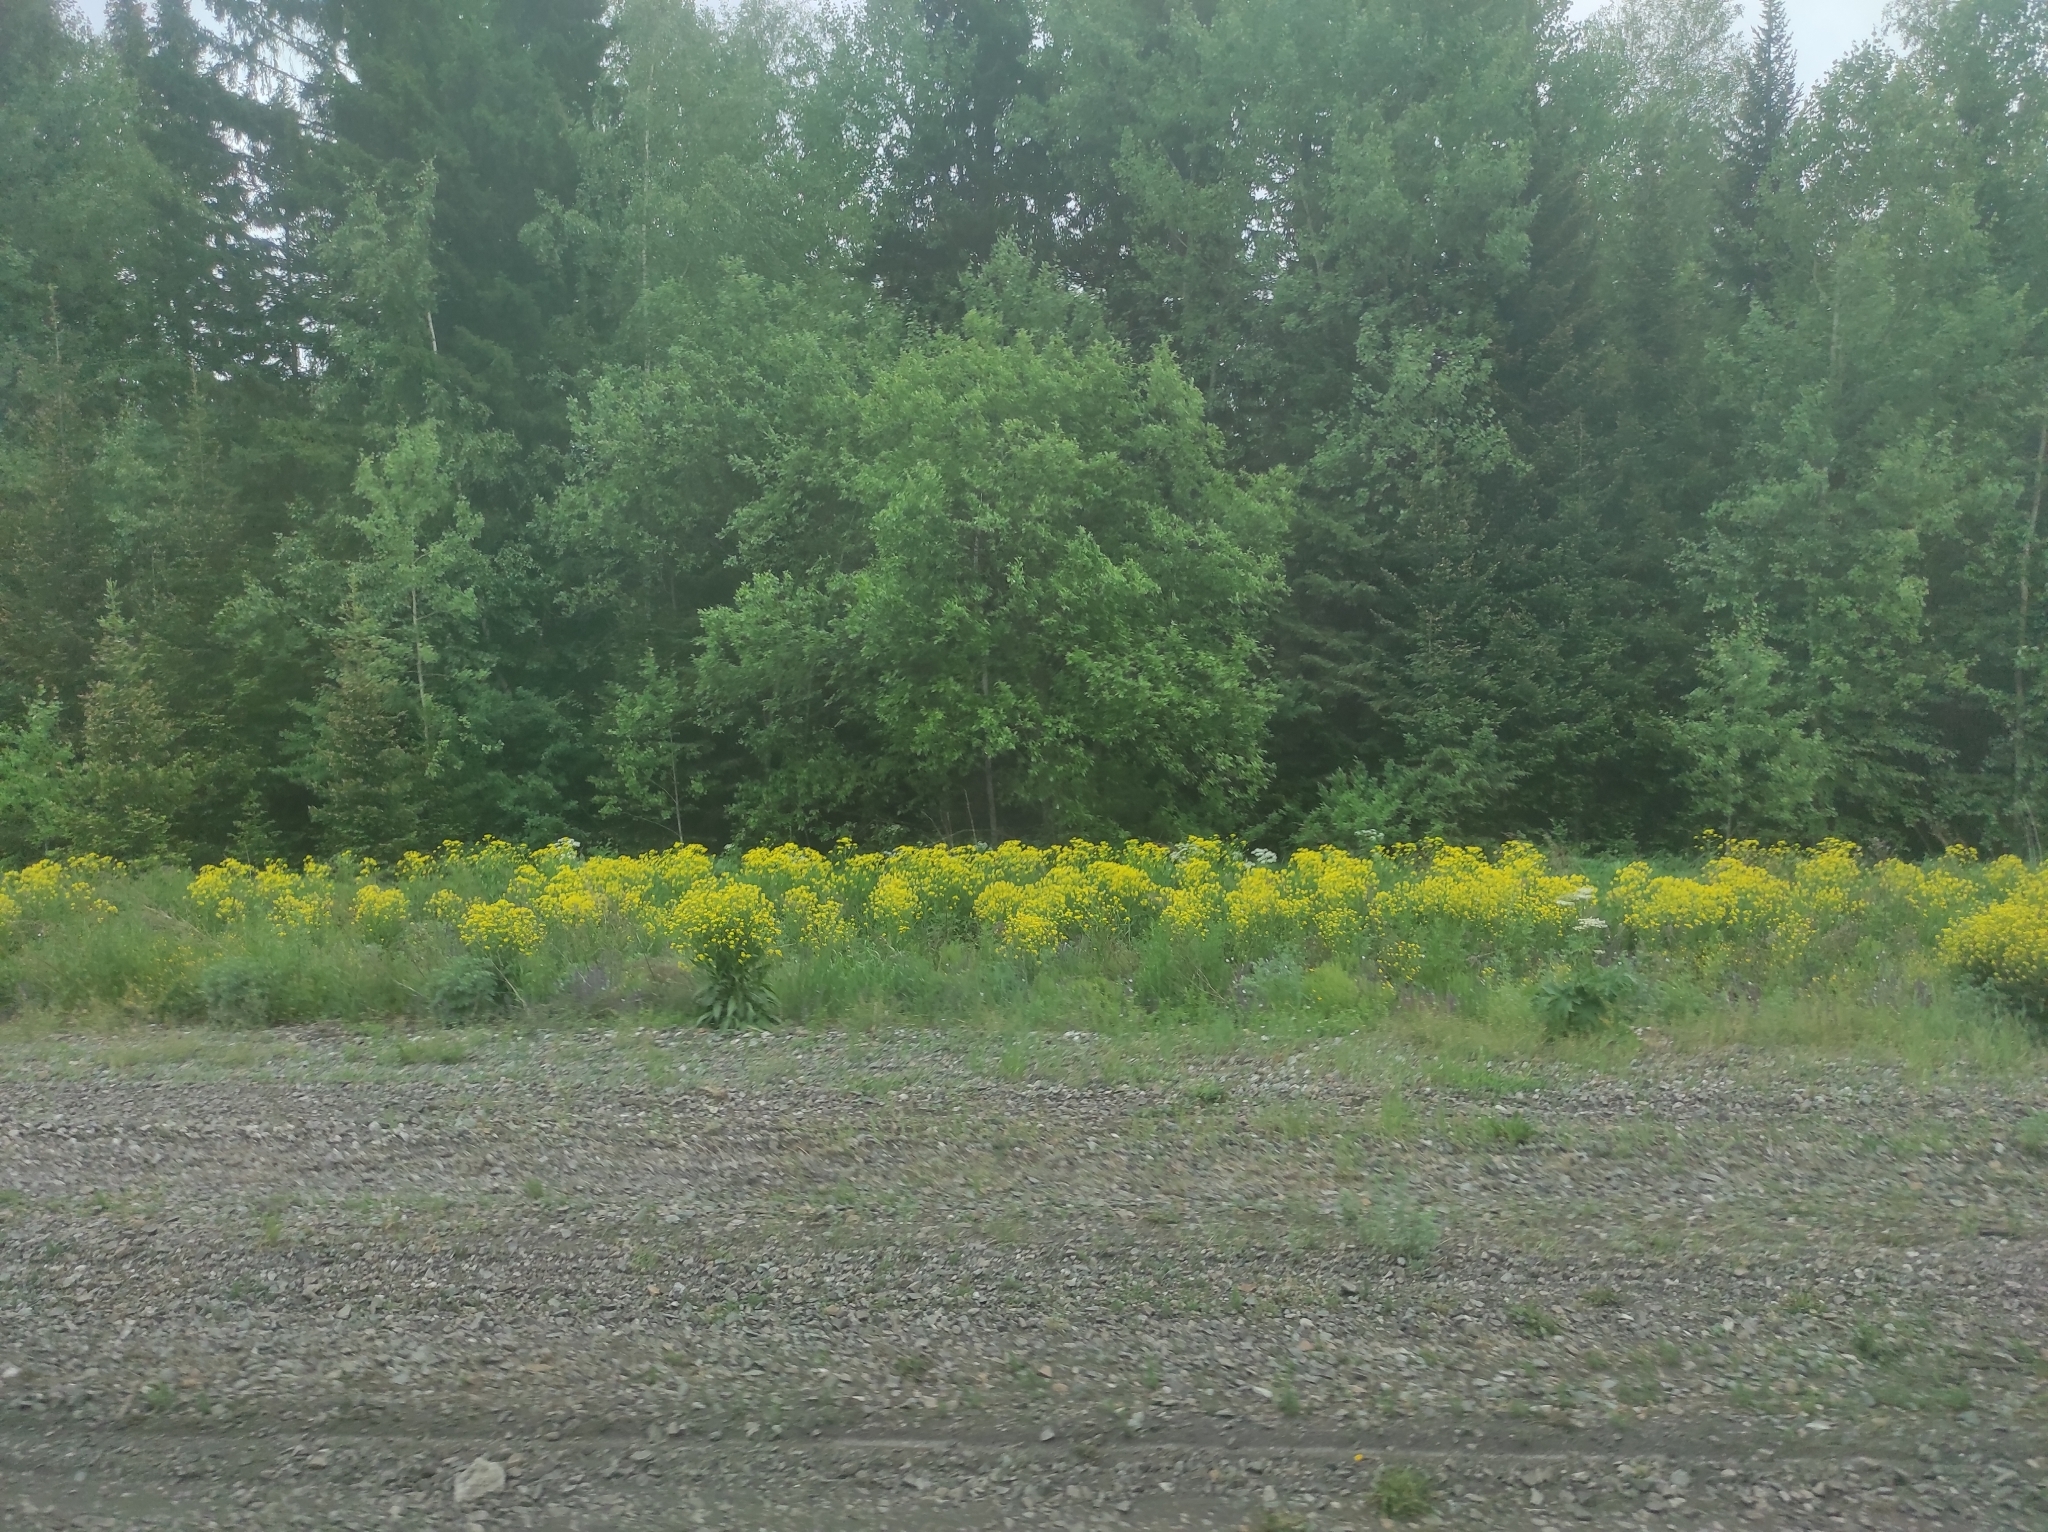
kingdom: Plantae
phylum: Tracheophyta
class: Magnoliopsida
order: Brassicales
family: Brassicaceae
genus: Bunias
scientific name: Bunias orientalis
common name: Warty-cabbage
